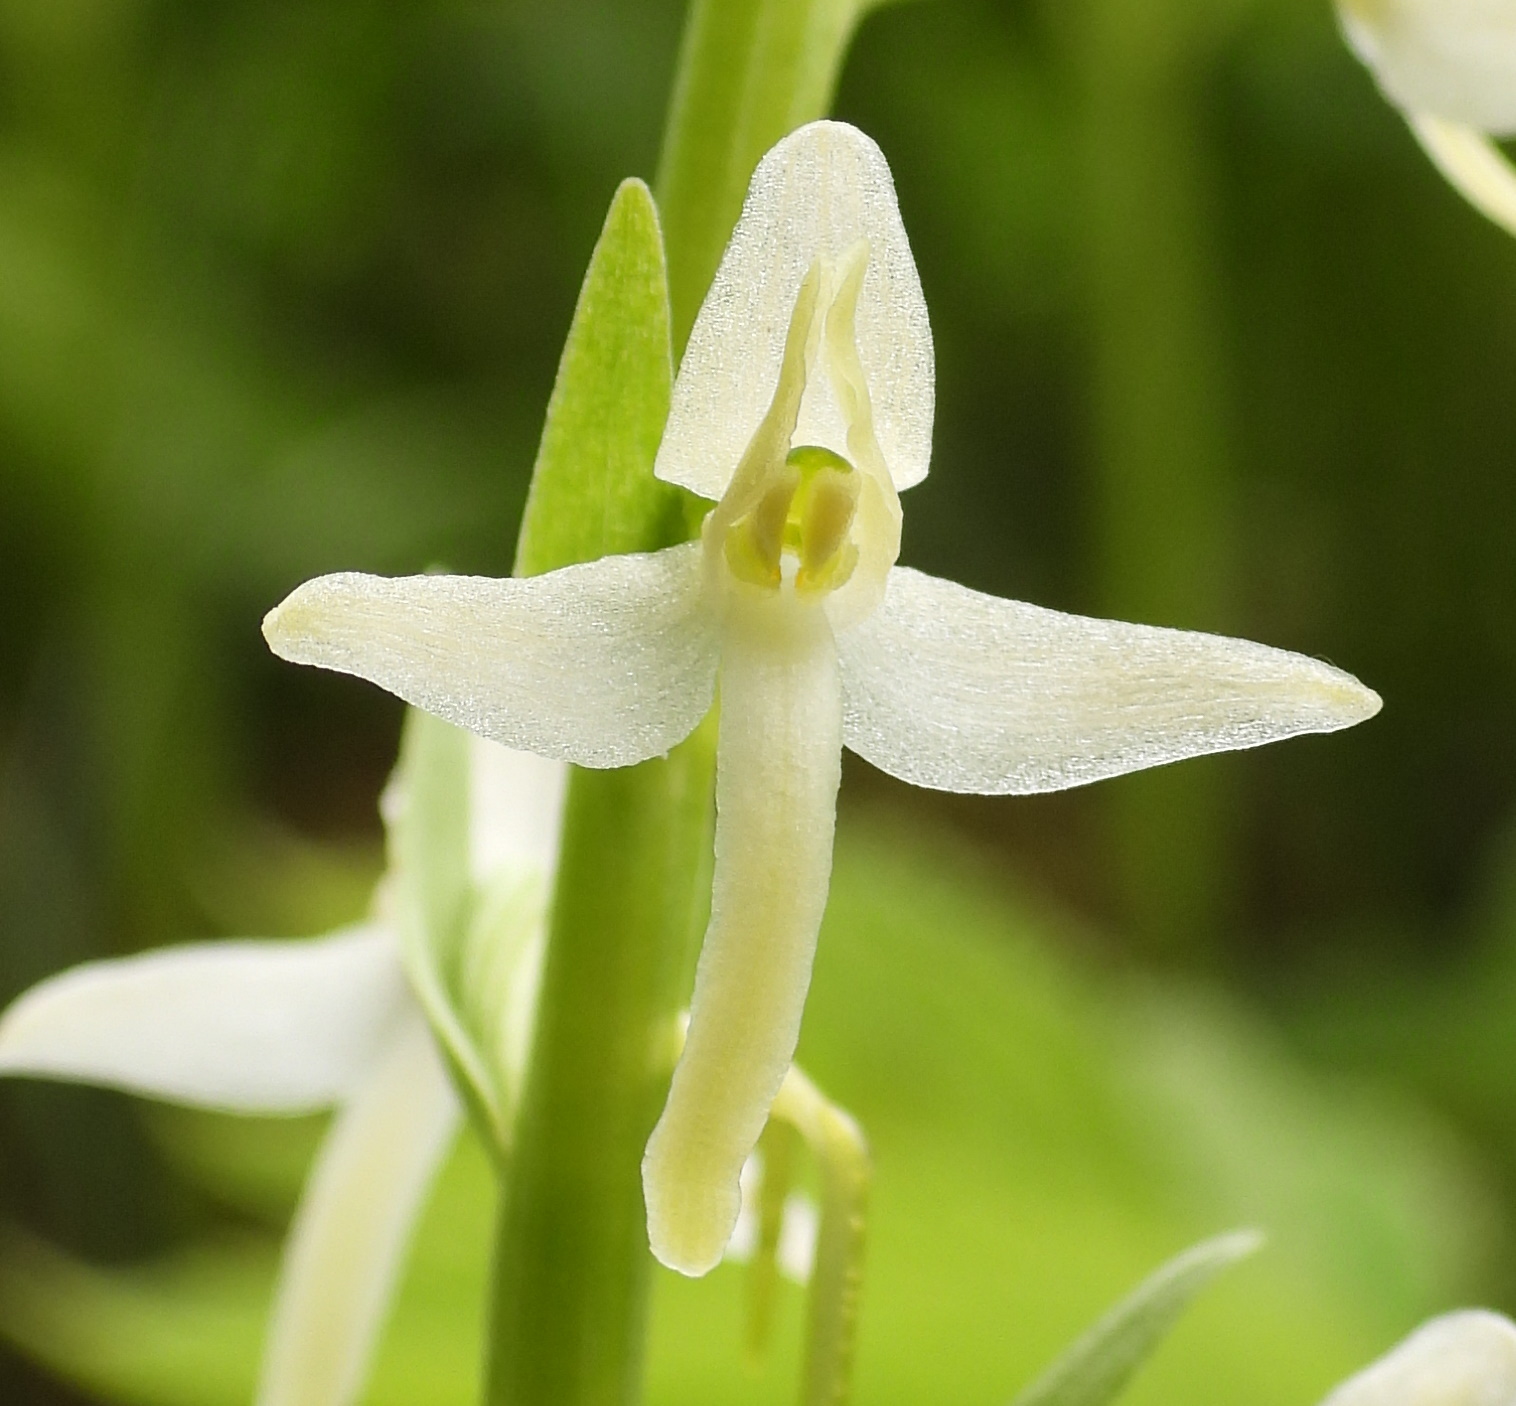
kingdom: Plantae
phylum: Tracheophyta
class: Liliopsida
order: Asparagales
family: Orchidaceae
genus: Platanthera
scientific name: Platanthera bifolia
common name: Lesser butterfly-orchid
